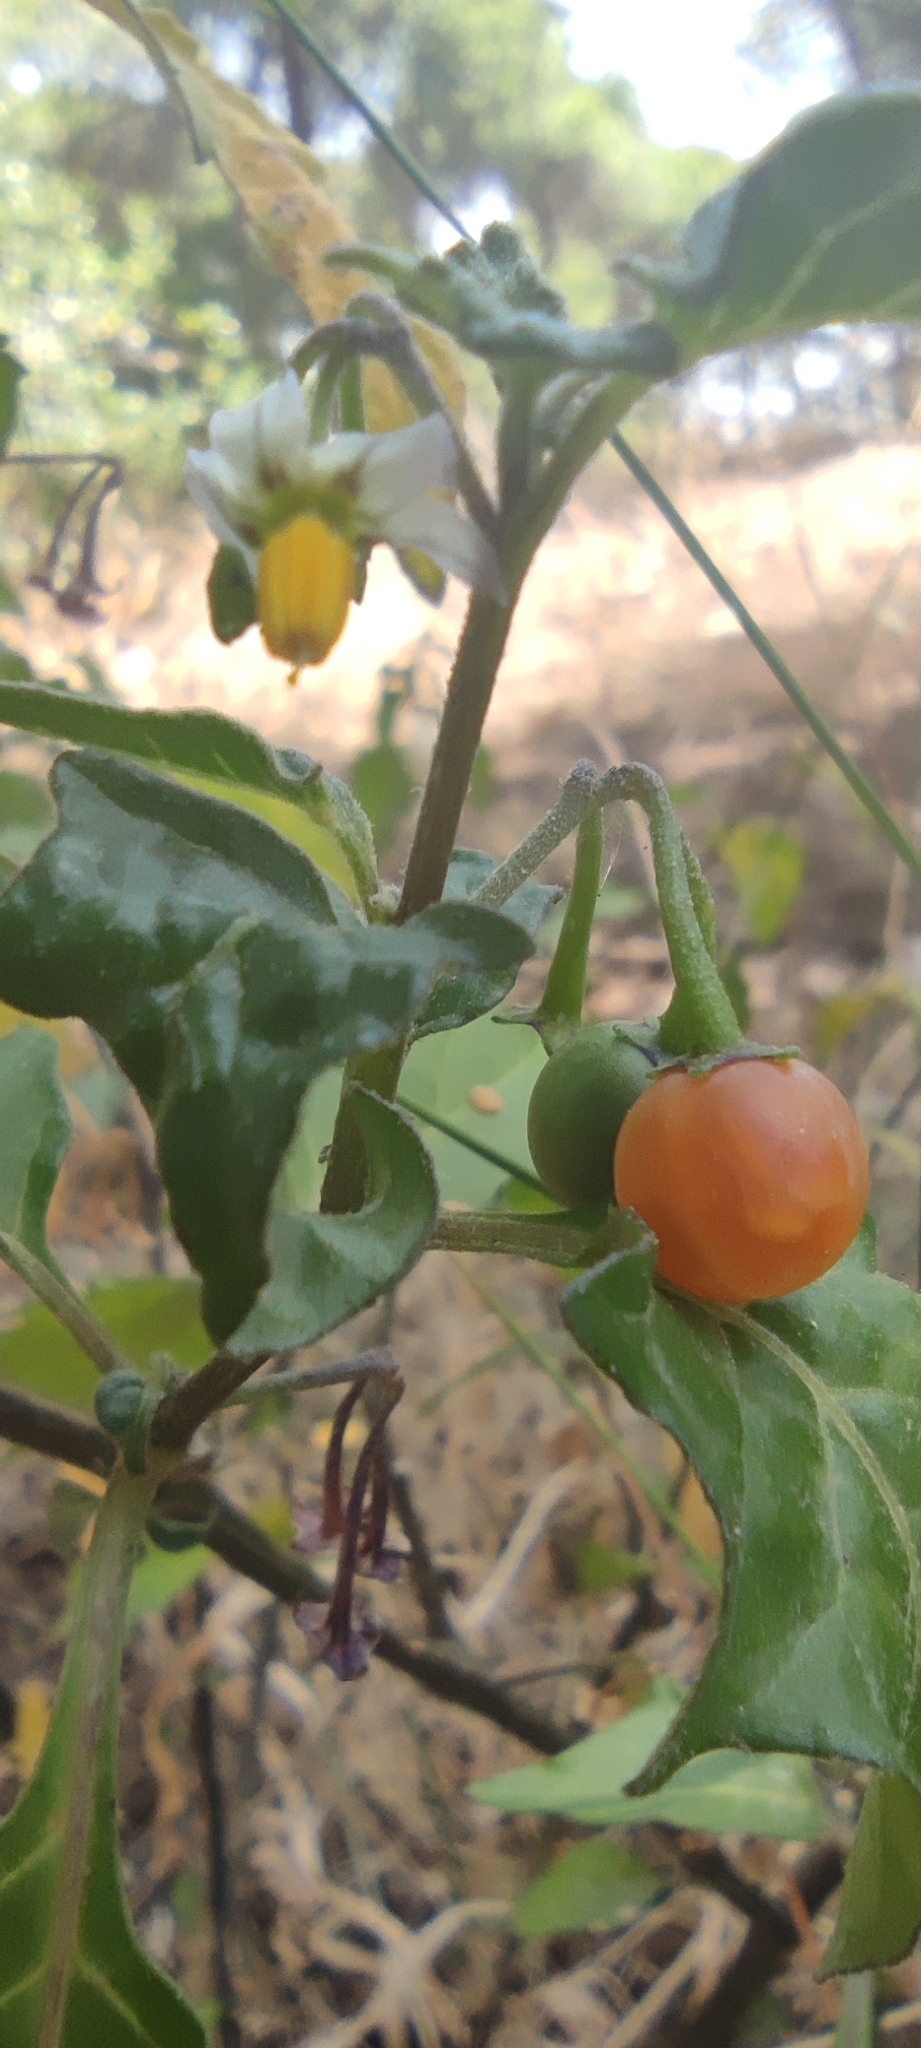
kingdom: Plantae
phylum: Tracheophyta
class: Magnoliopsida
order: Solanales
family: Solanaceae
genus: Solanum
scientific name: Solanum villosum
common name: Red nightshade
